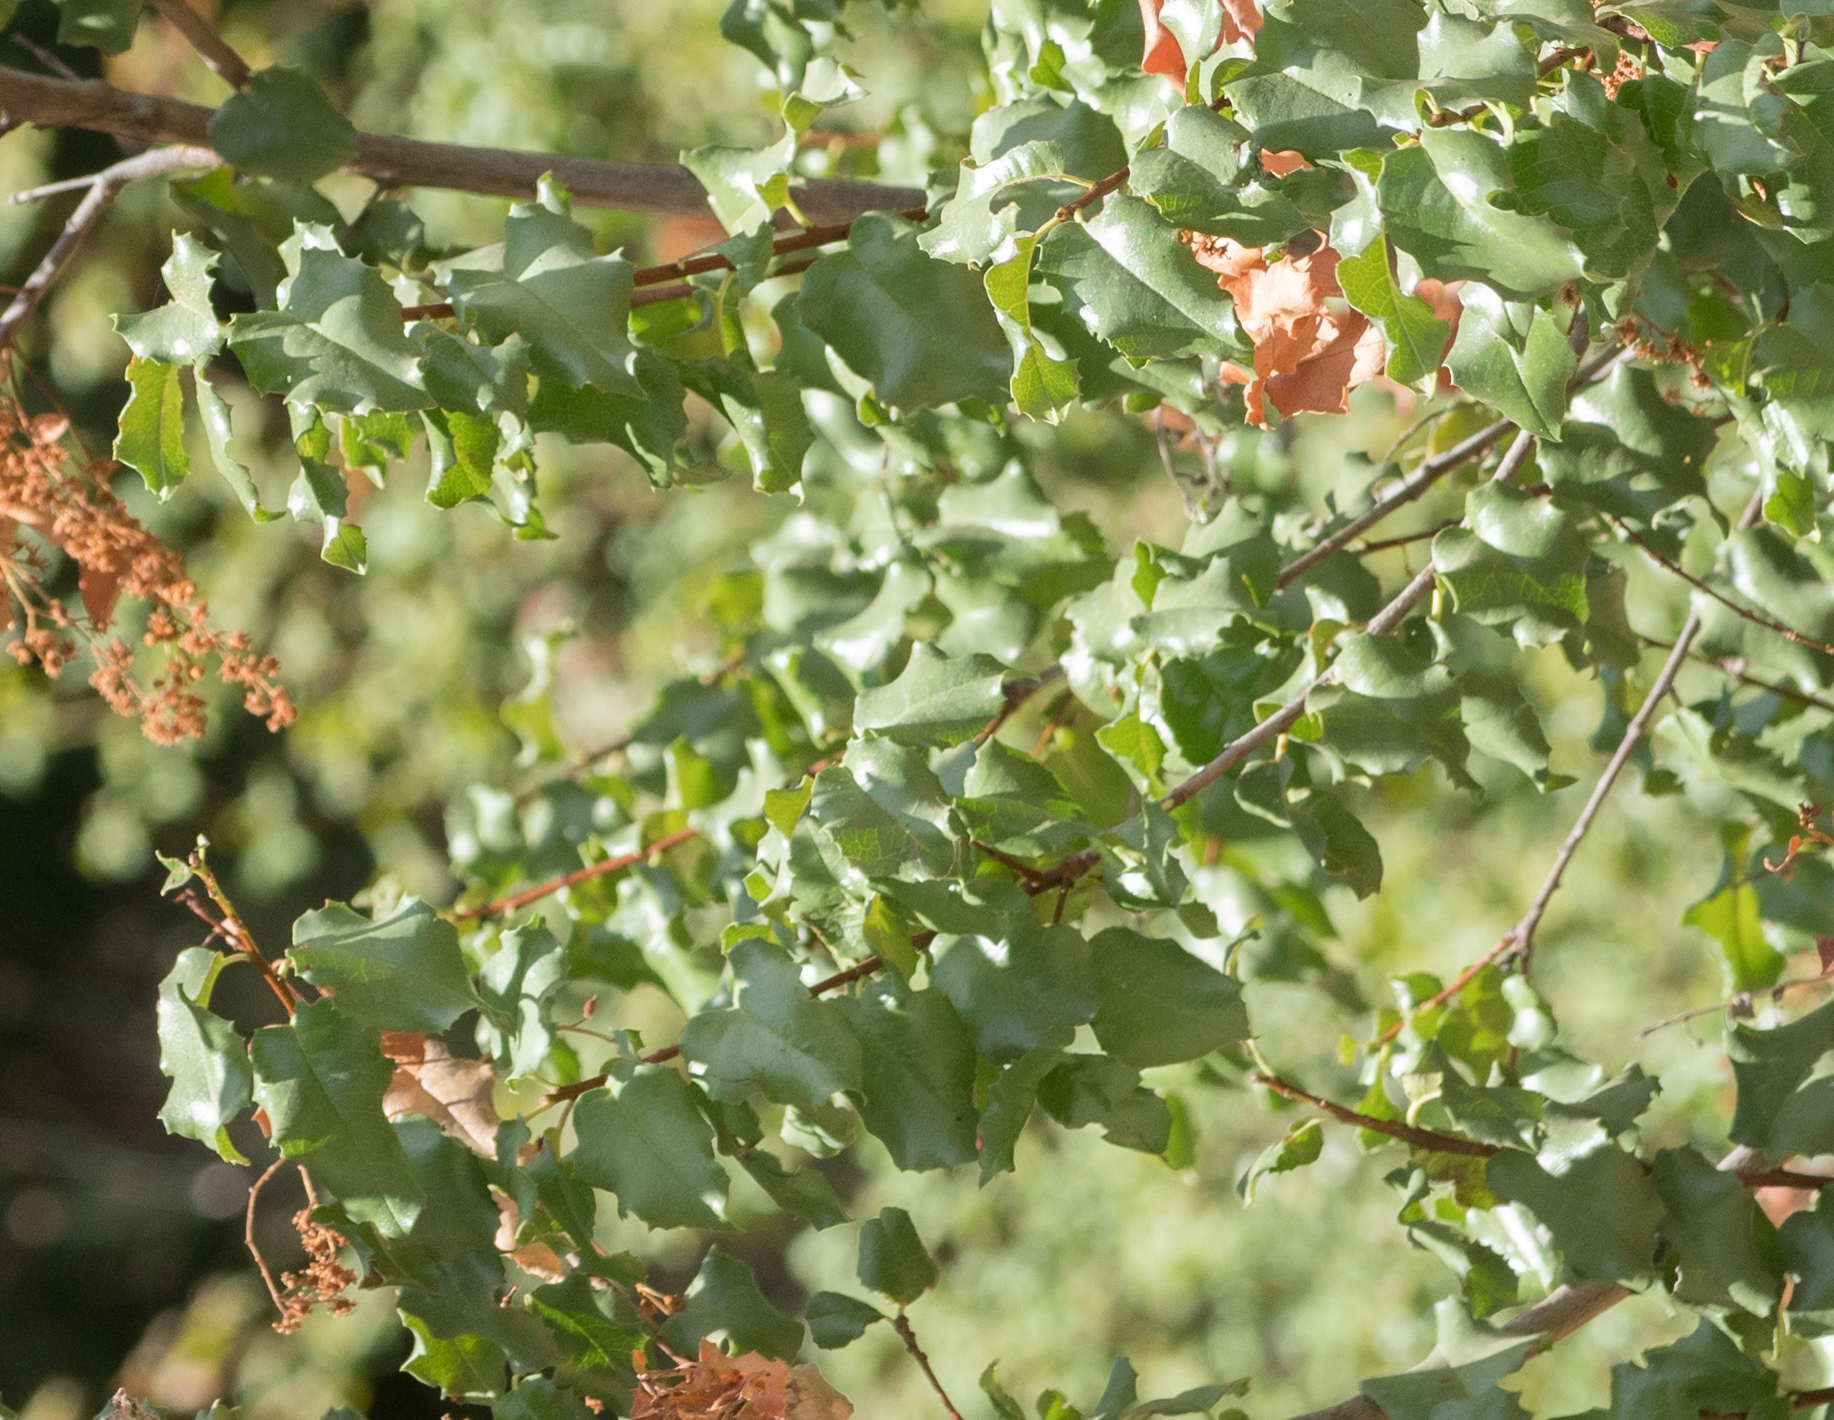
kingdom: Plantae
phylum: Tracheophyta
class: Magnoliopsida
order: Rosales
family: Rosaceae
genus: Prunus
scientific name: Prunus ilicifolia
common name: Hollyleaf cherry
